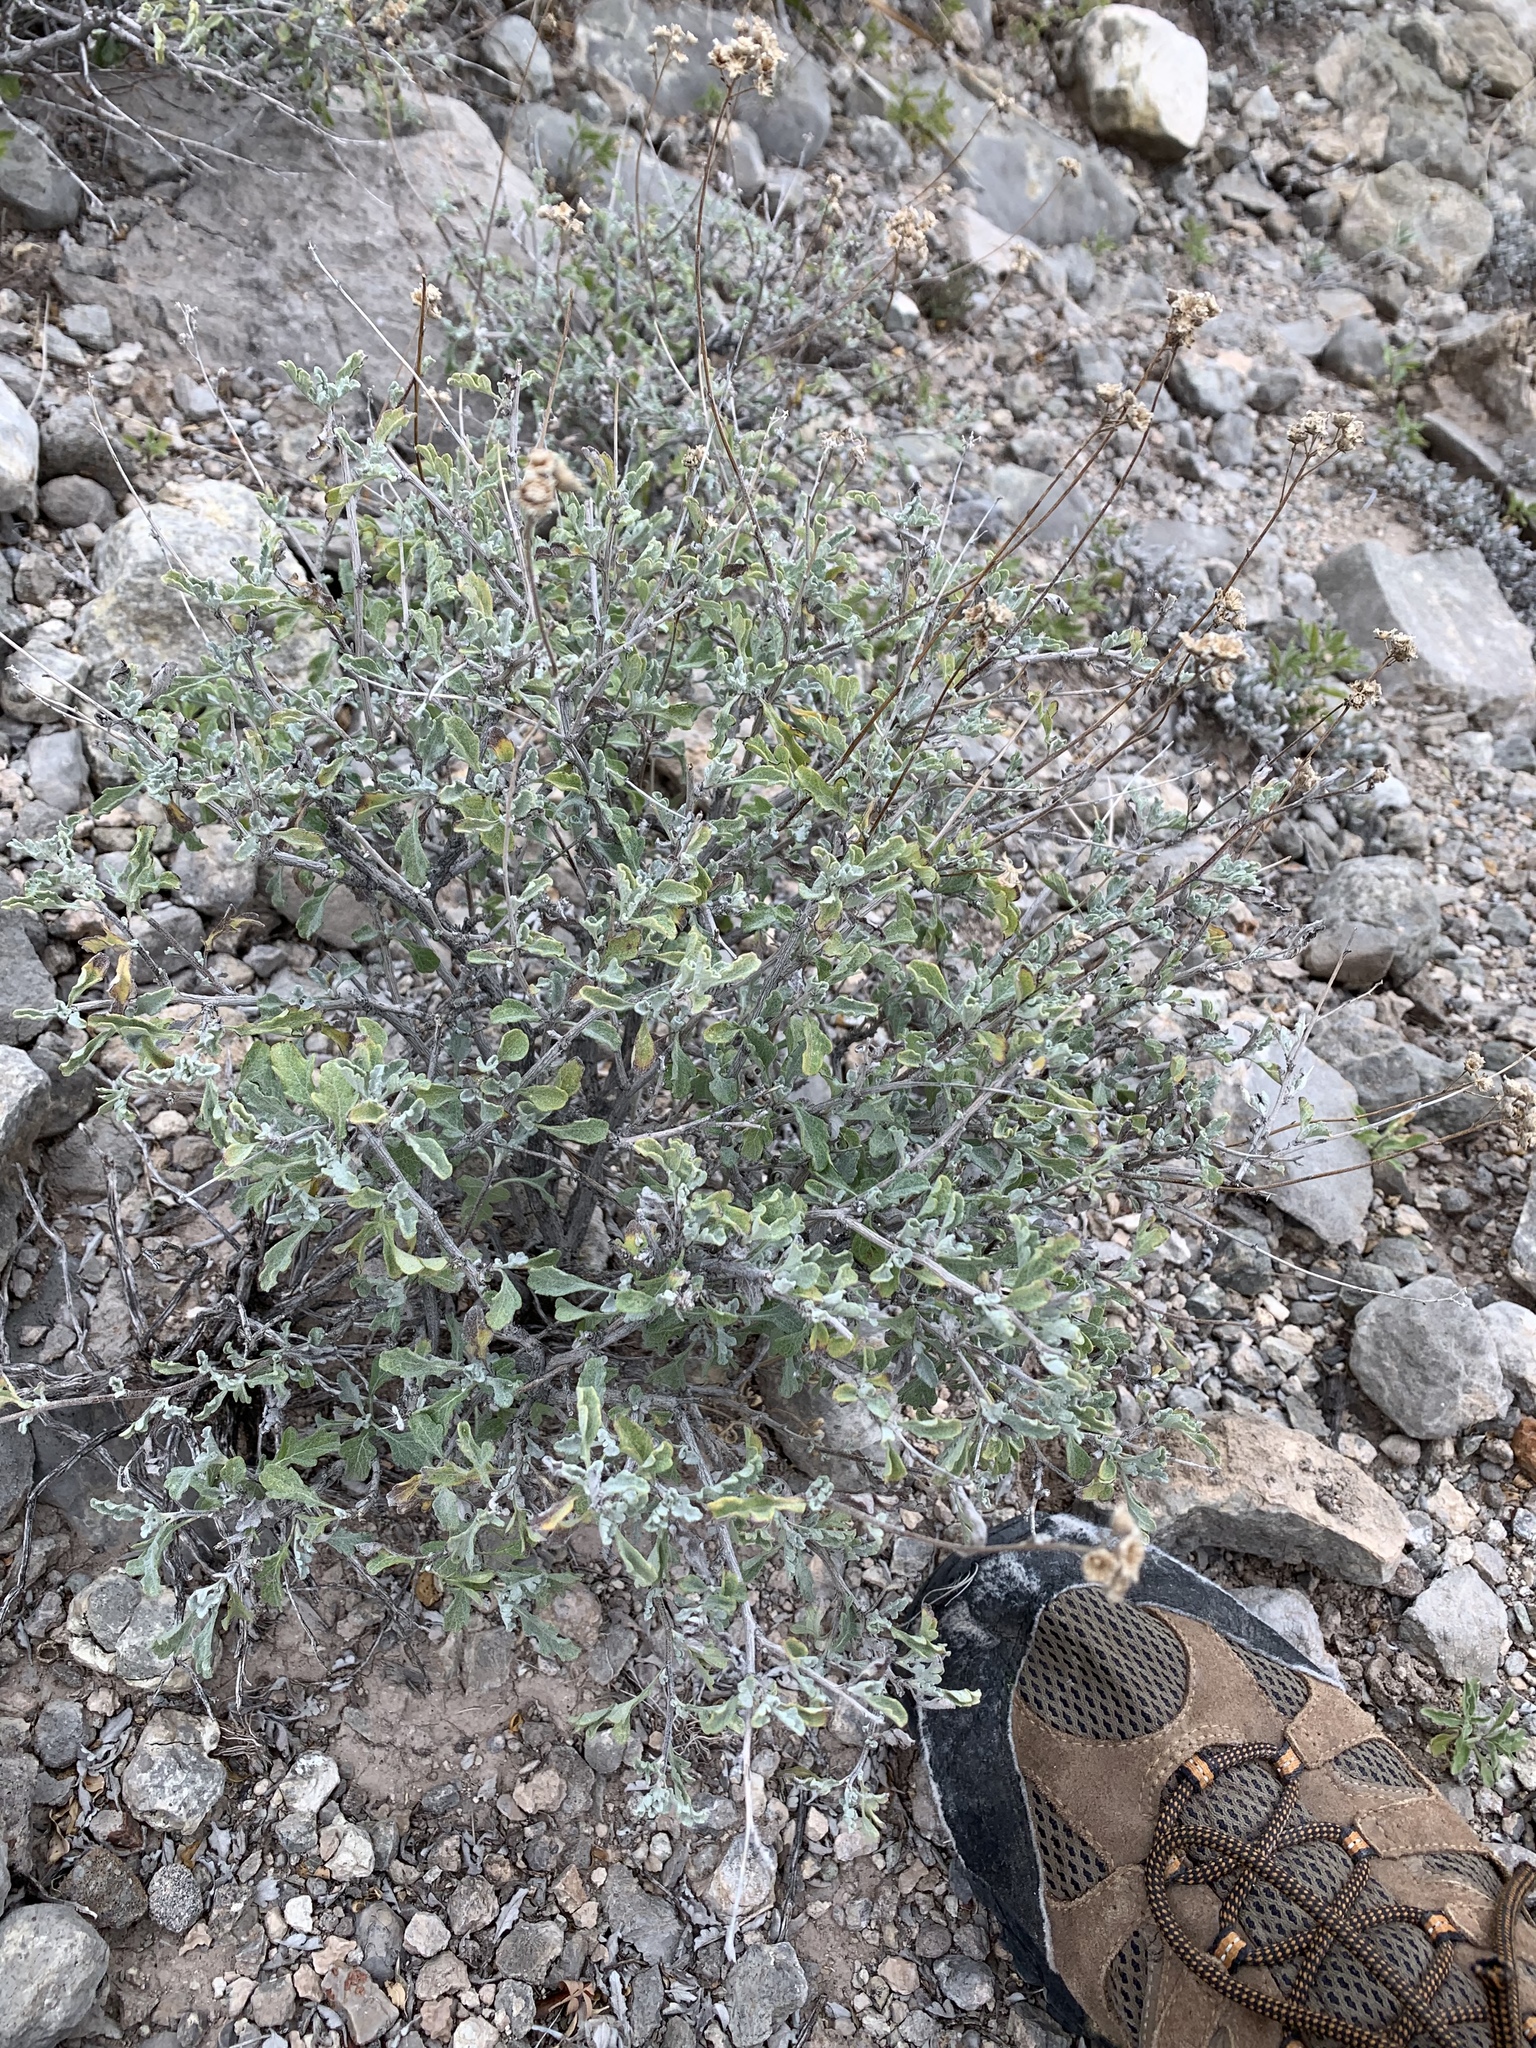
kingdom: Plantae
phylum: Tracheophyta
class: Magnoliopsida
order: Asterales
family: Asteraceae
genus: Parthenium
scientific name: Parthenium incanum
